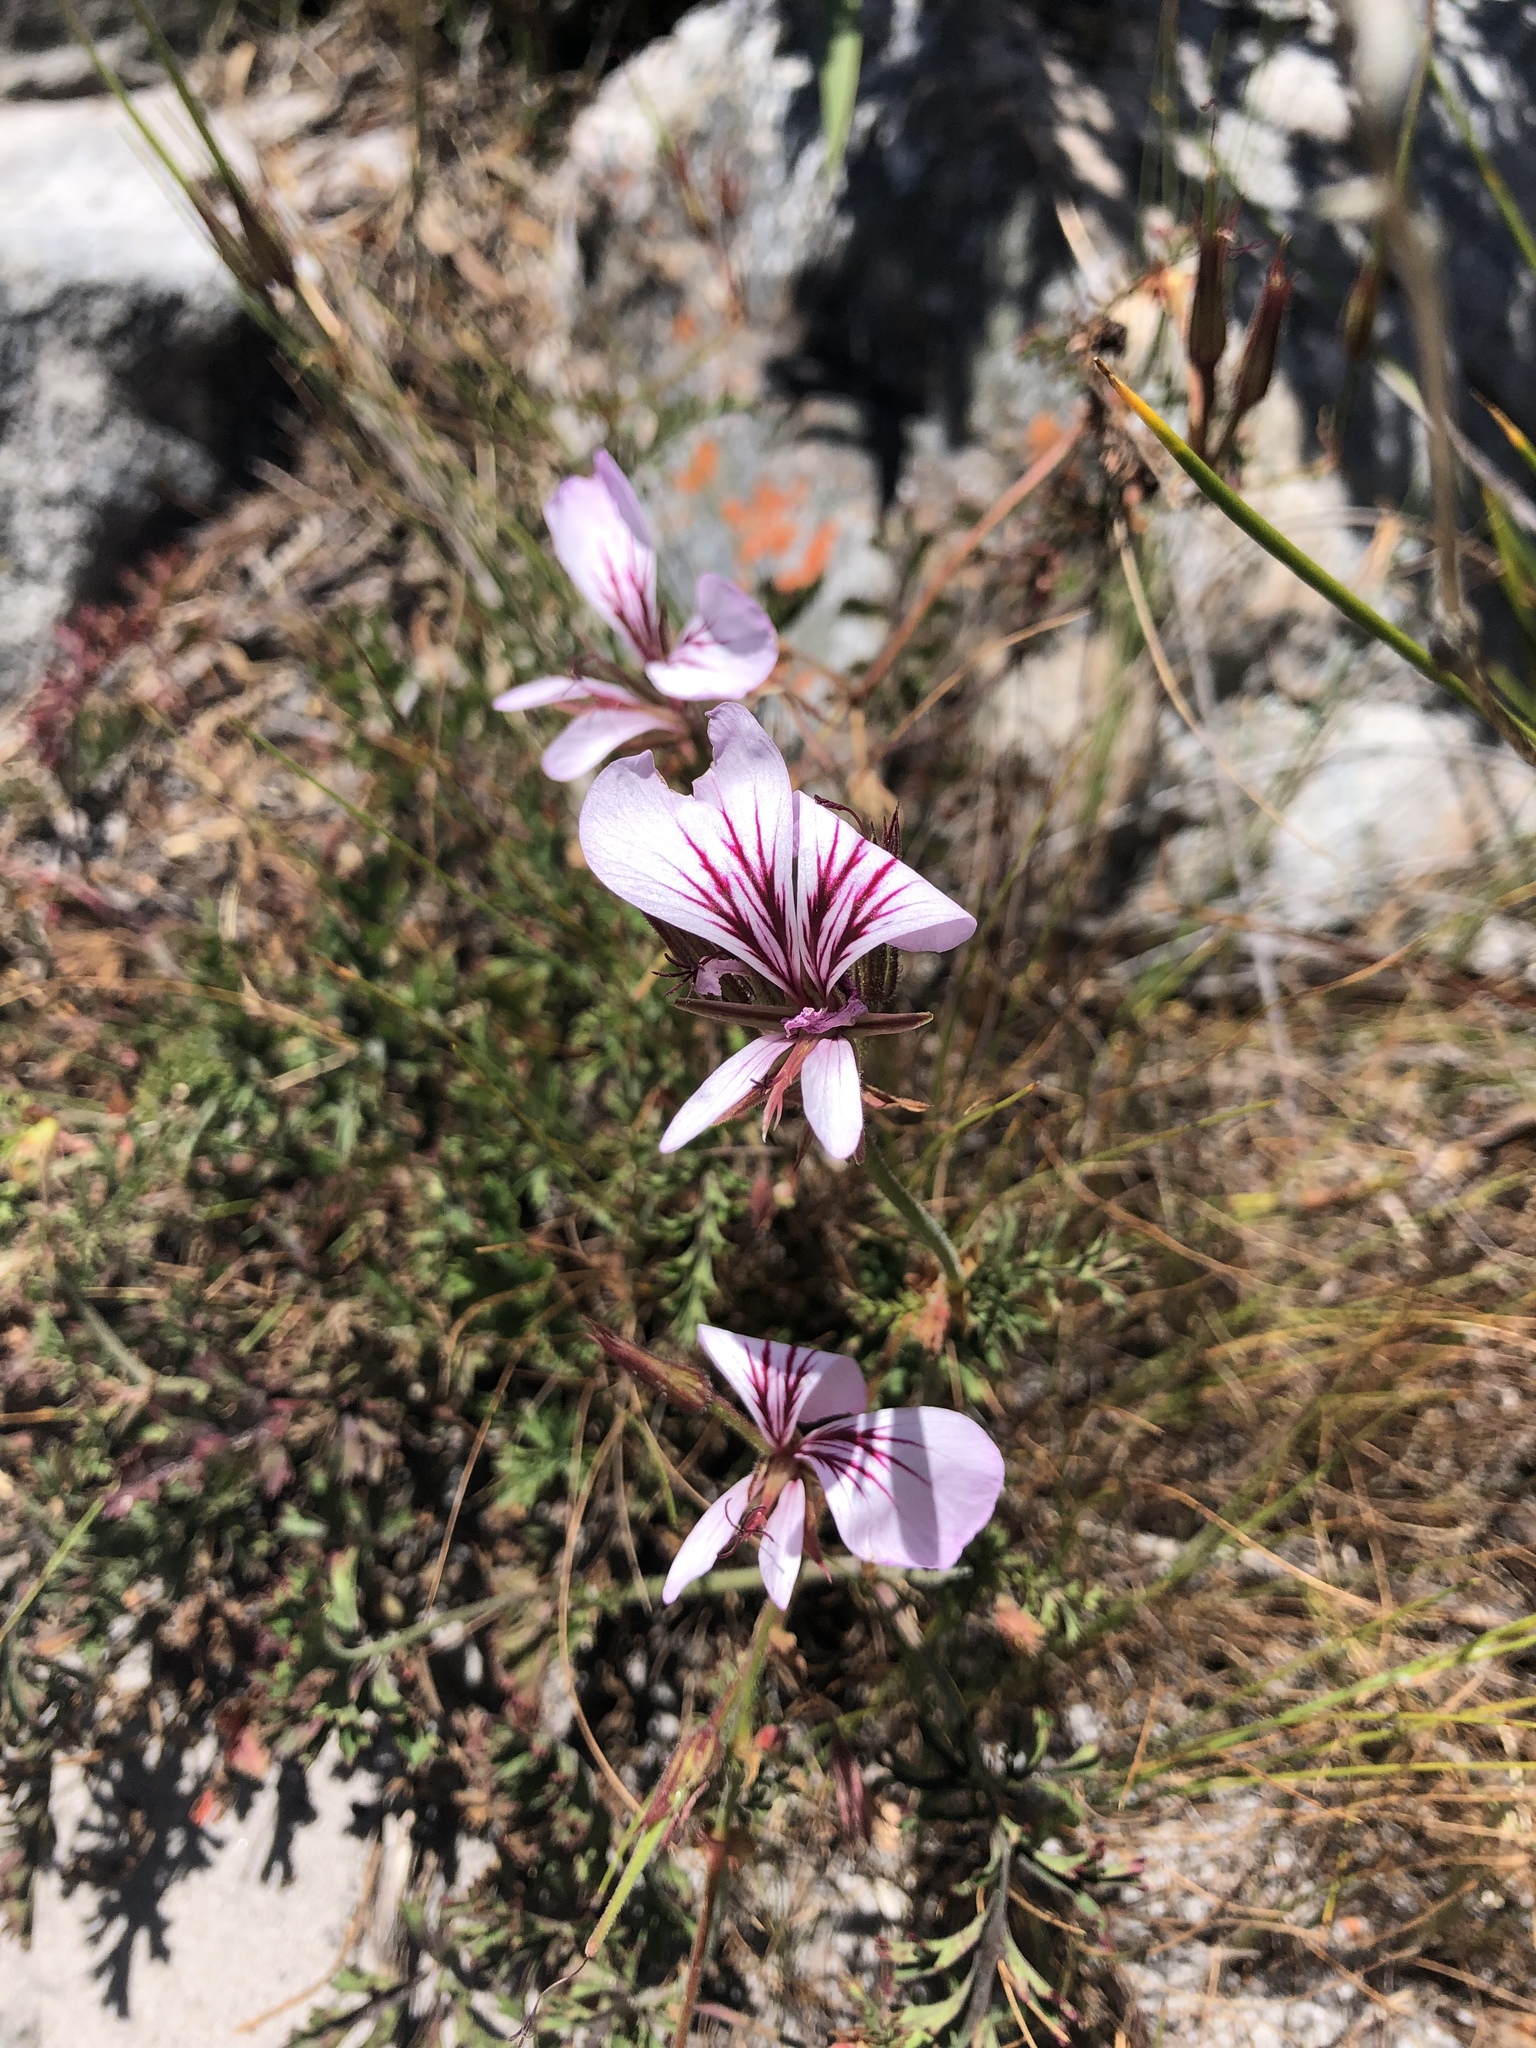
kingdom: Plantae
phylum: Tracheophyta
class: Magnoliopsida
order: Geraniales
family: Geraniaceae
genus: Pelargonium
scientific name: Pelargonium myrrhifolium
